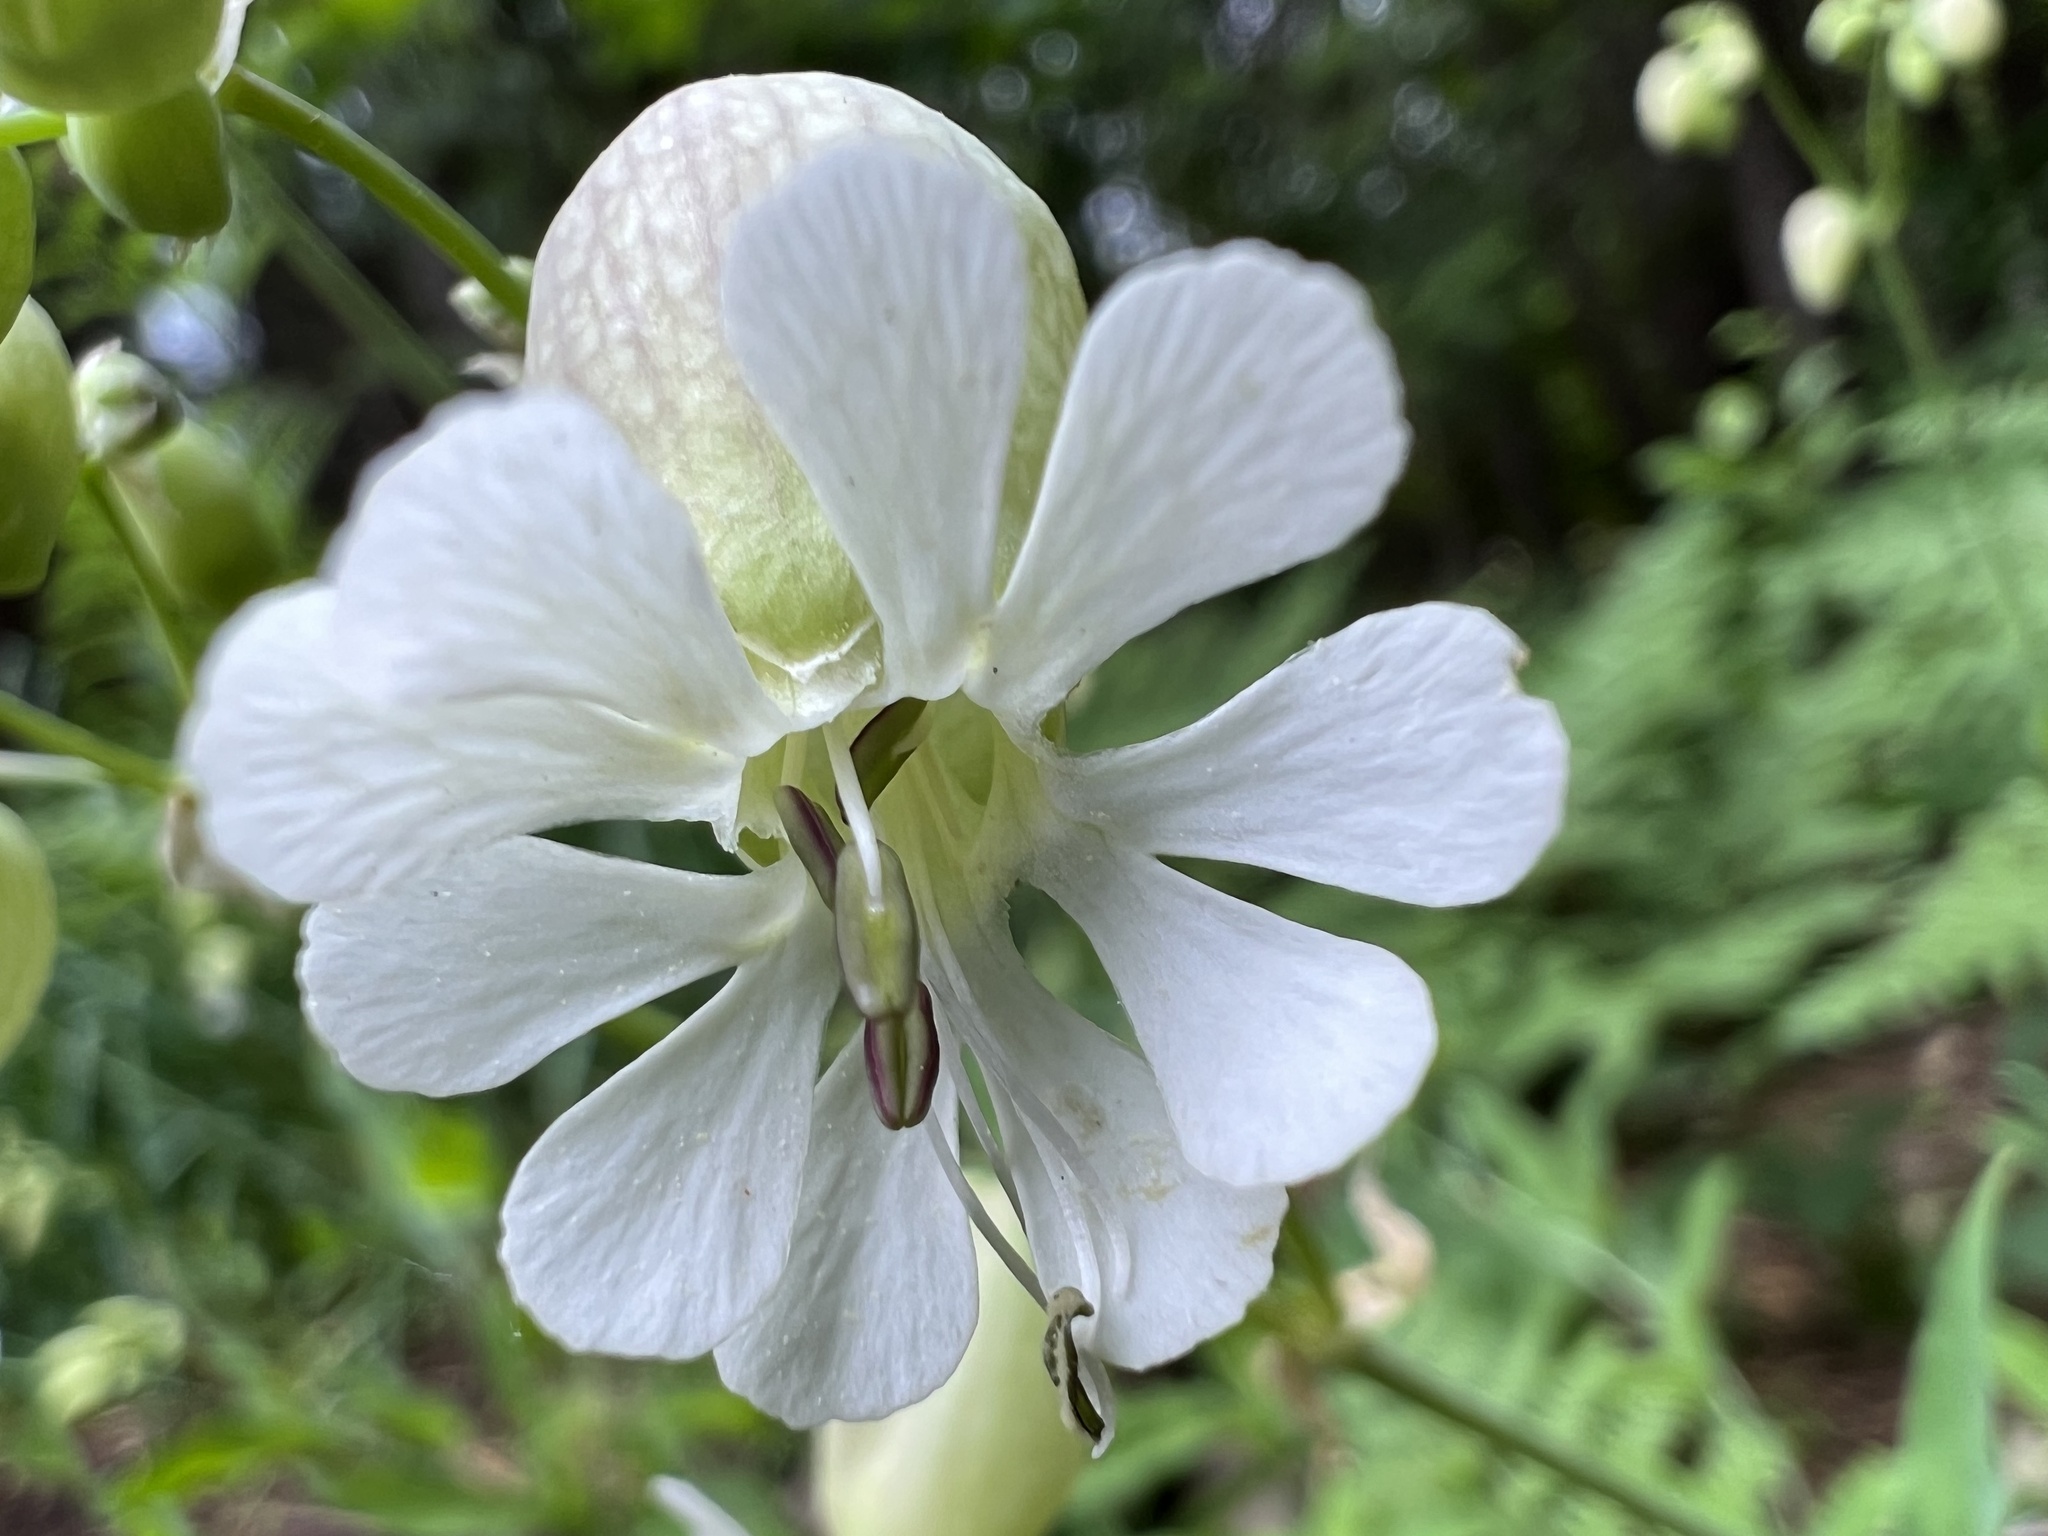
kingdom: Plantae
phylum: Tracheophyta
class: Magnoliopsida
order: Caryophyllales
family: Caryophyllaceae
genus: Silene
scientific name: Silene vulgaris
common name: Bladder campion
